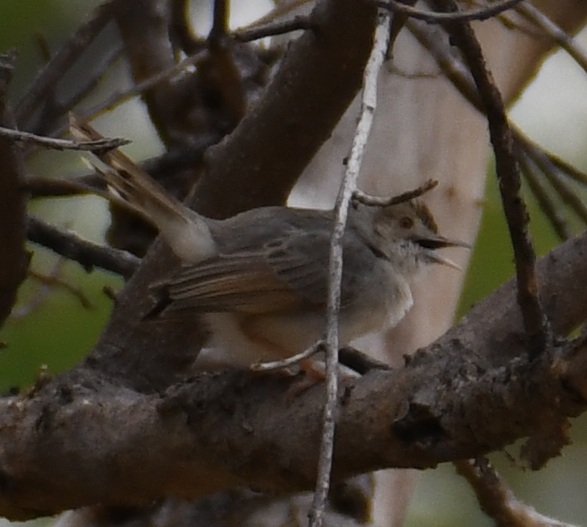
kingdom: Animalia
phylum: Chordata
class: Aves
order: Passeriformes
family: Cisticolidae
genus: Cisticola
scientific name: Cisticola chiniana
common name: Rattling cisticola
